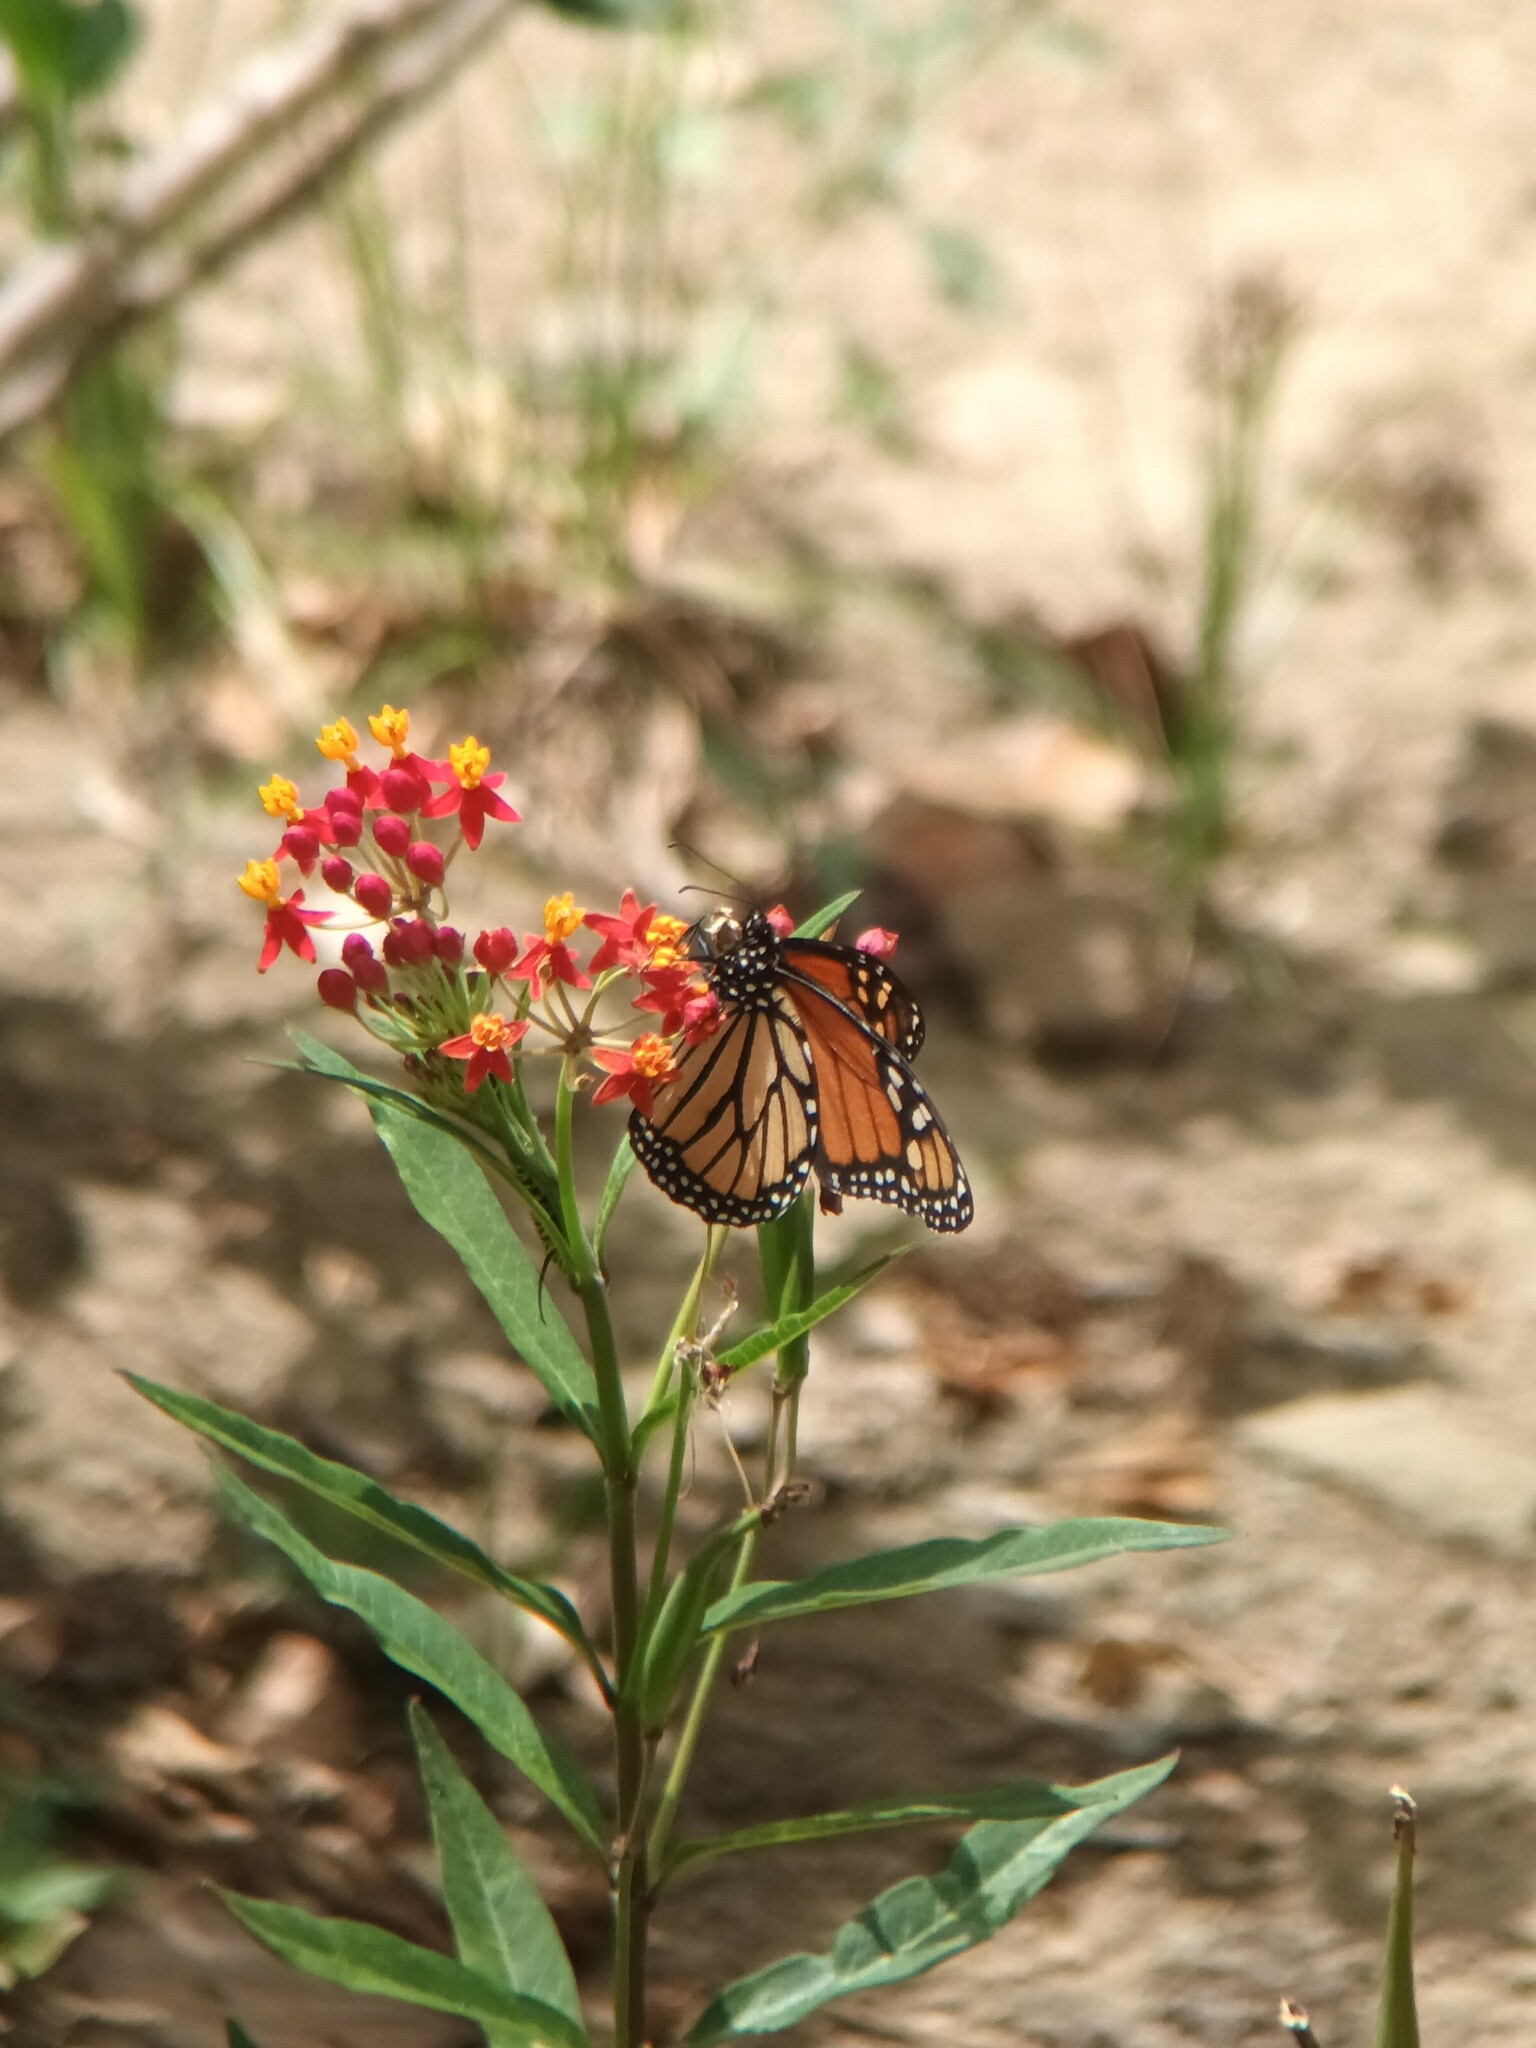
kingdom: Animalia
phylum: Arthropoda
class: Insecta
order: Lepidoptera
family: Nymphalidae
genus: Danaus
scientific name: Danaus plexippus
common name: Monarch
